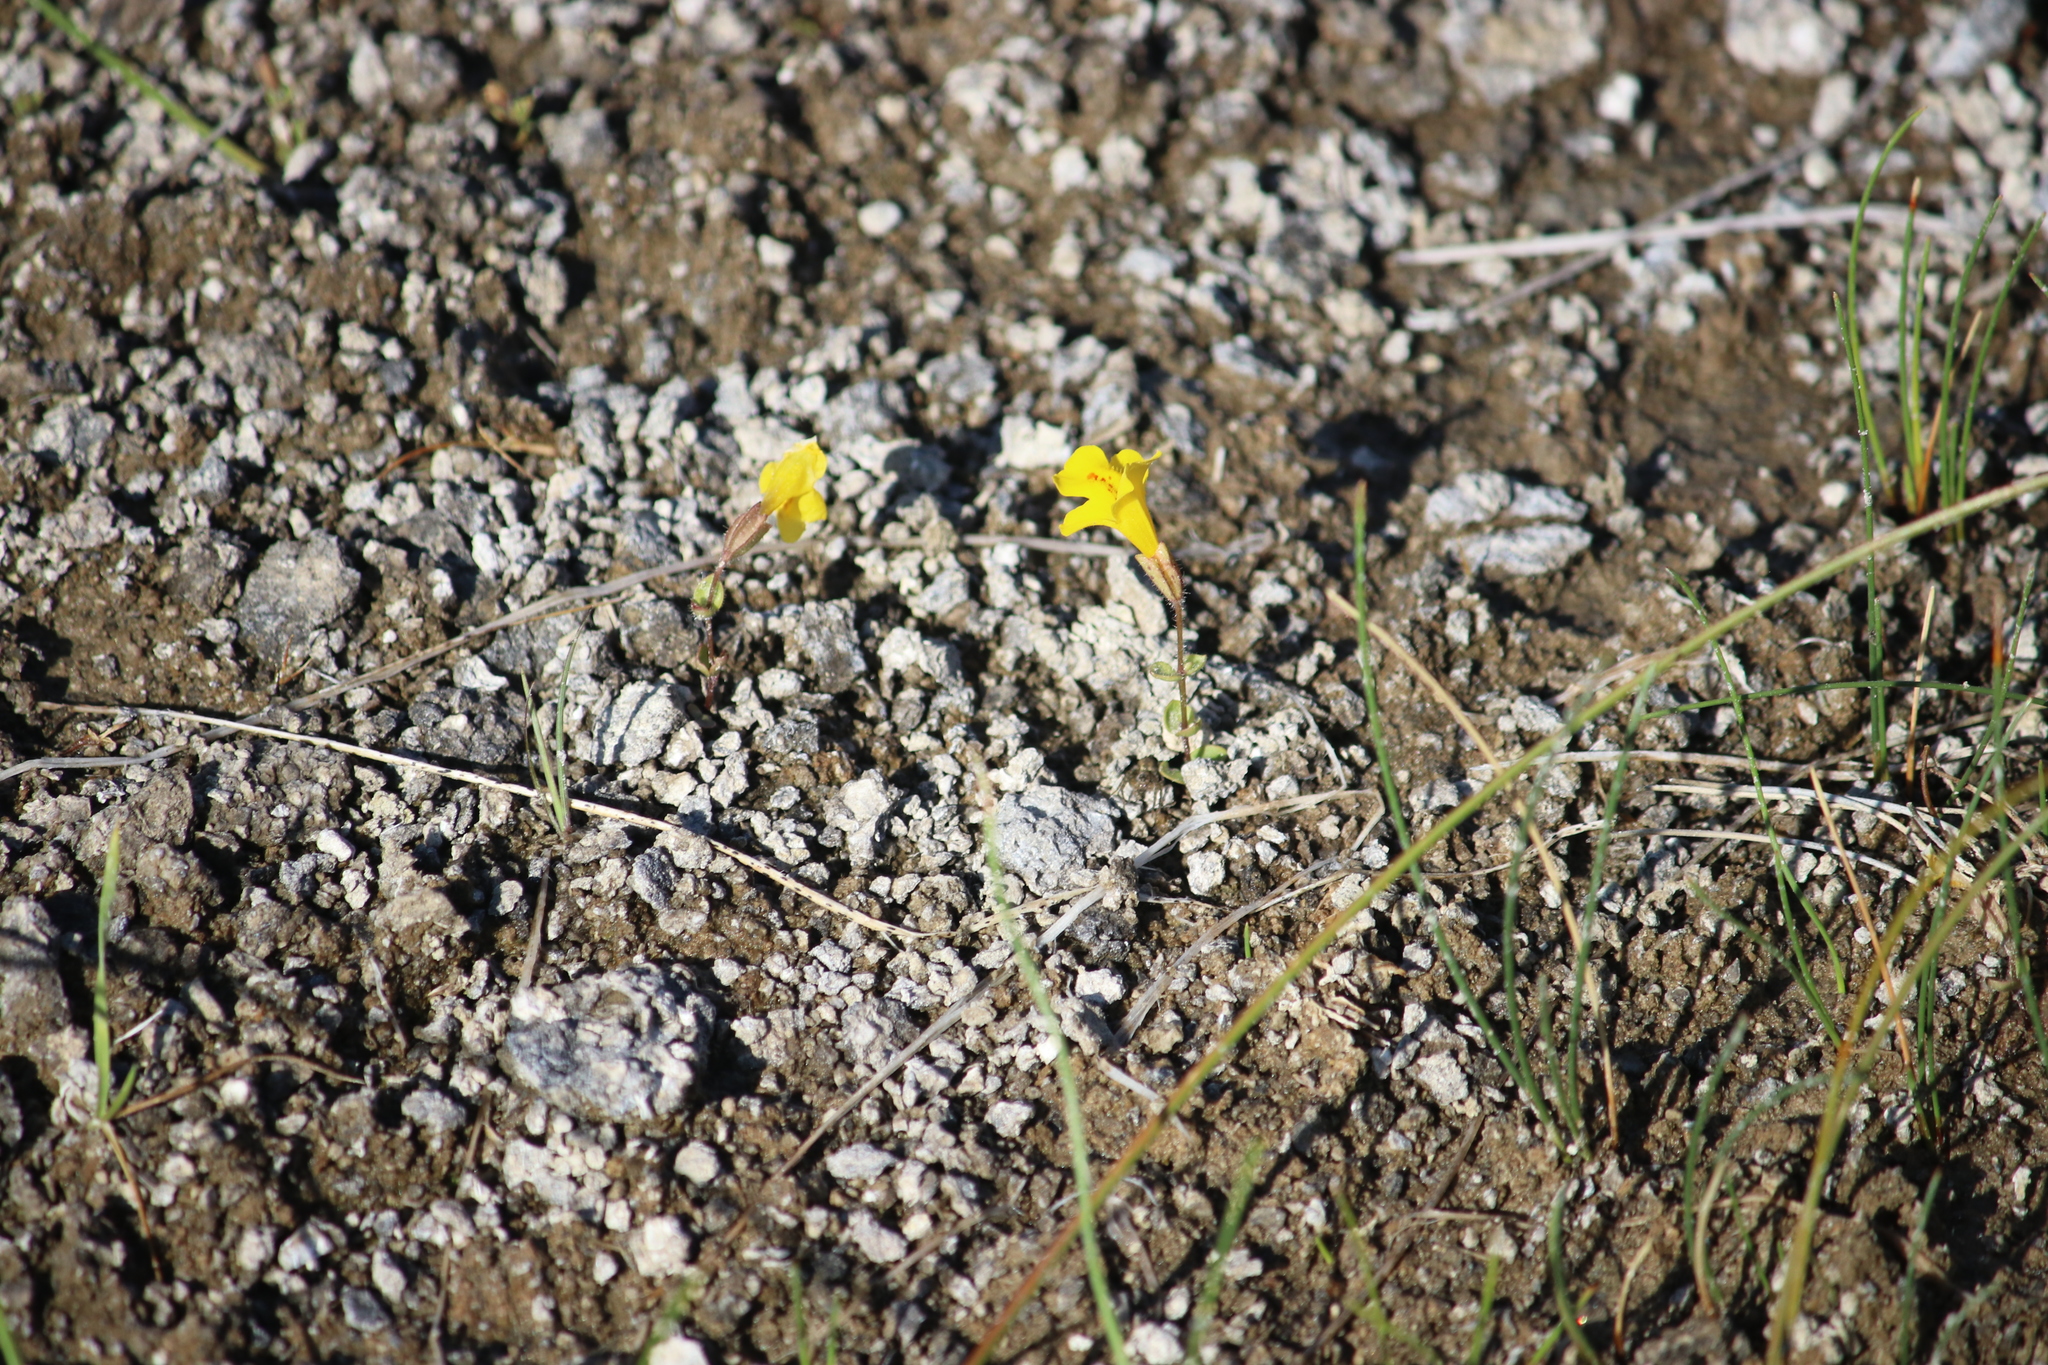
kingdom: Plantae
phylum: Tracheophyta
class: Magnoliopsida
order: Lamiales
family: Phrymaceae
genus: Erythranthe
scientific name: Erythranthe thermalis
